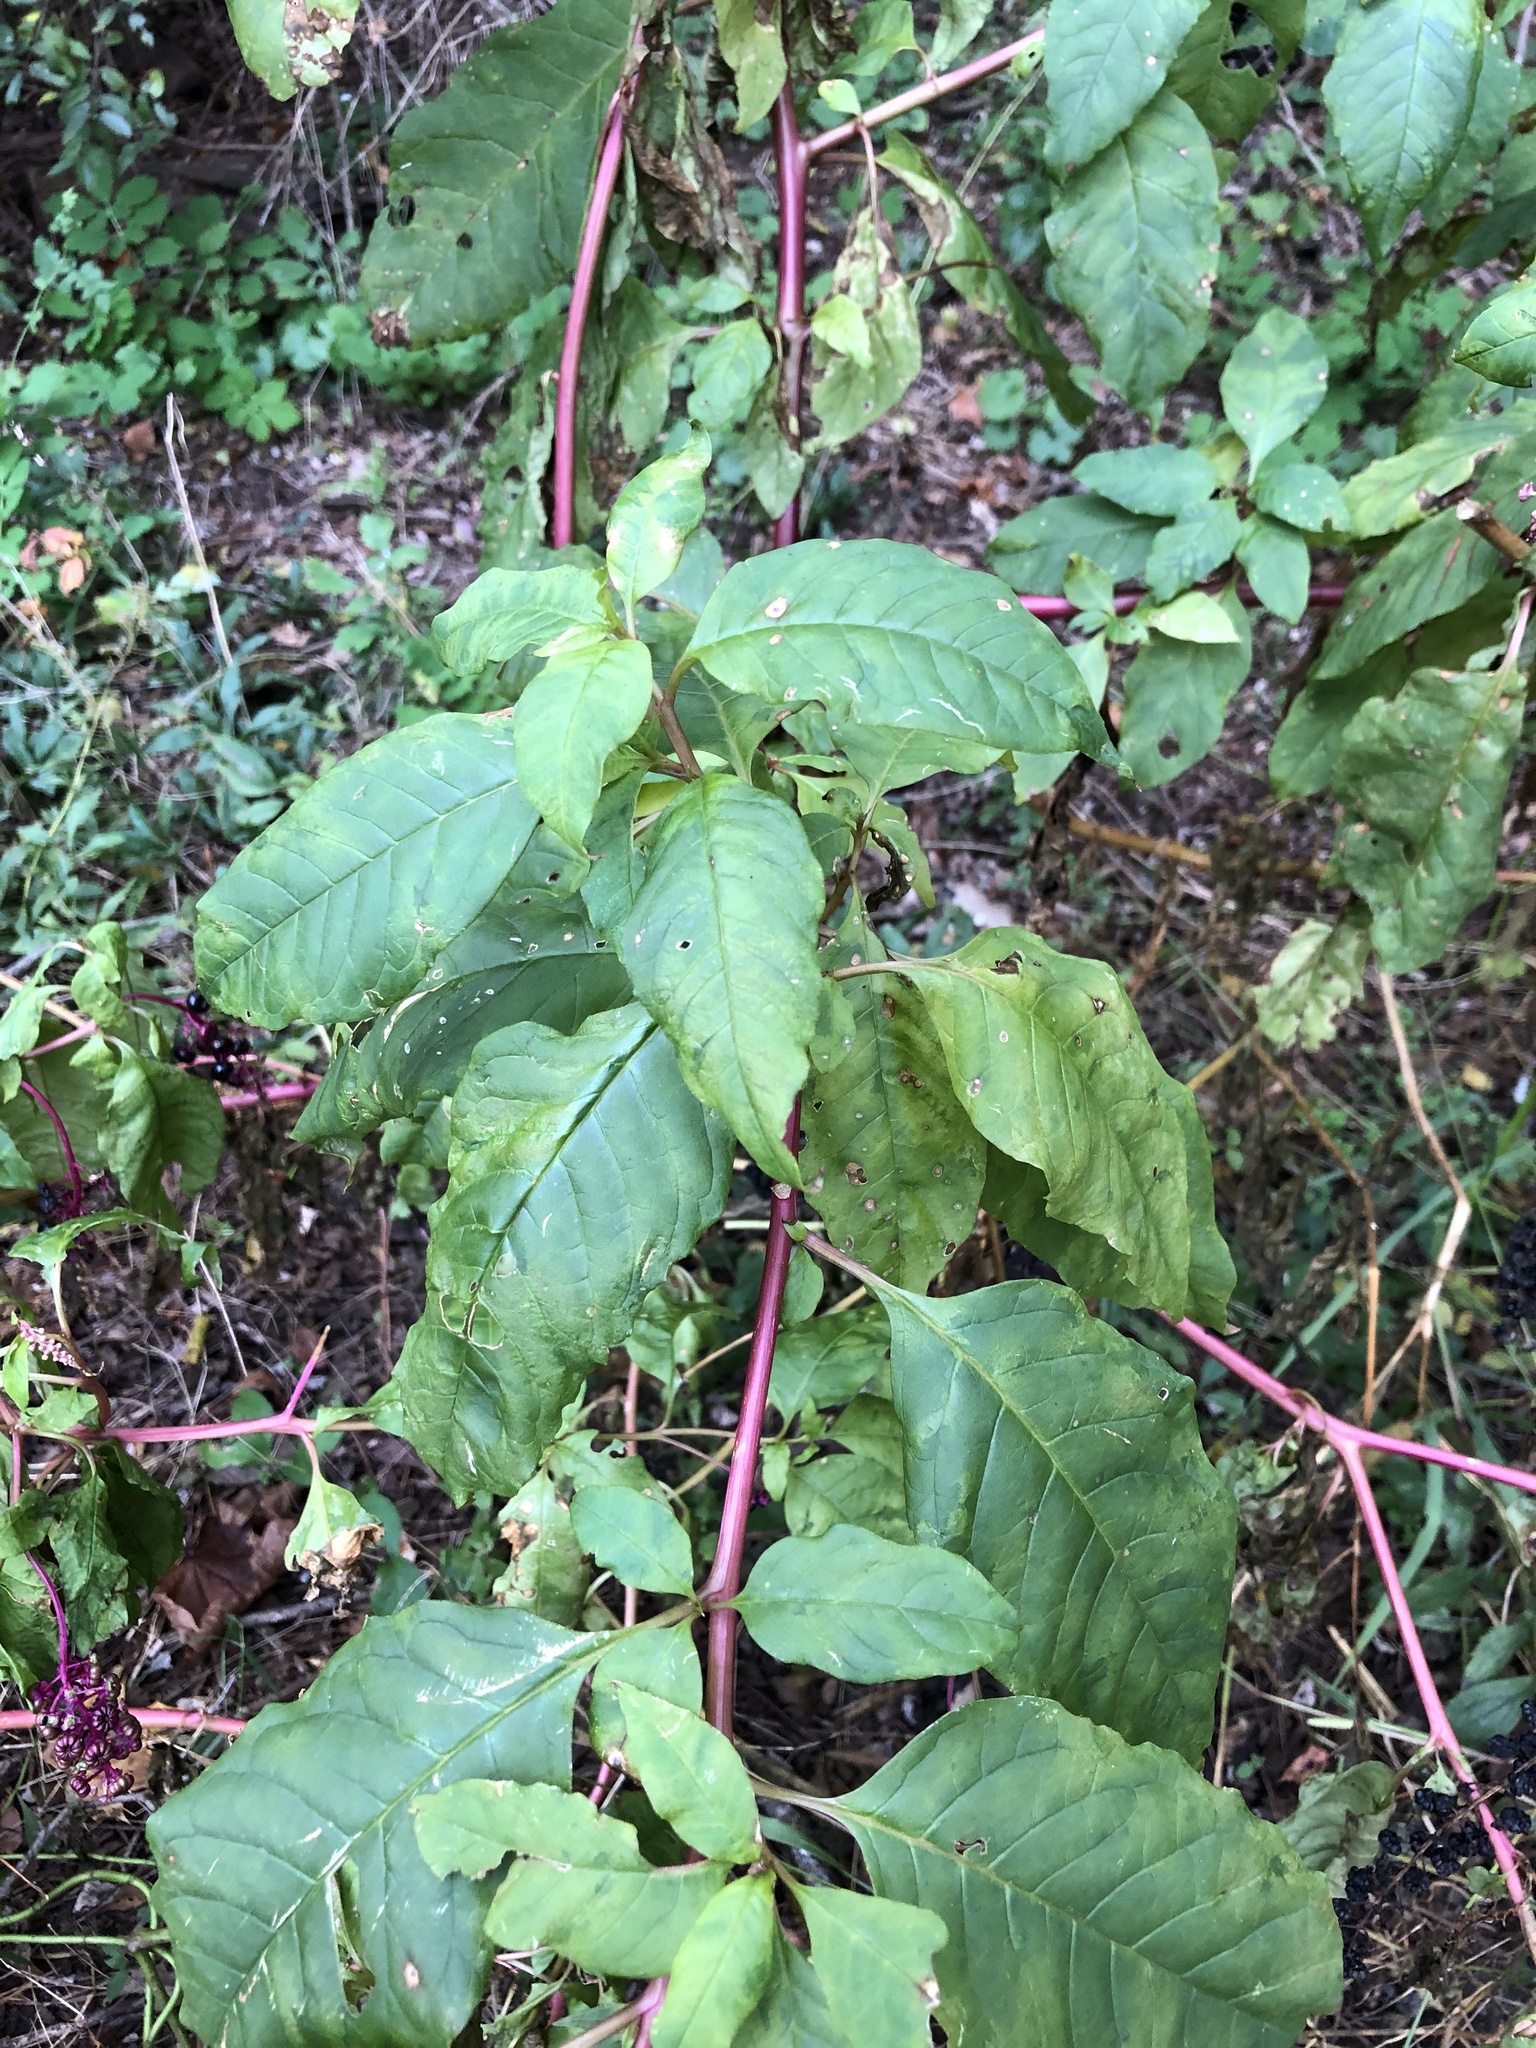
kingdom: Viruses
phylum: Pisuviricota
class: Stelpaviricetes
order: Patatavirales
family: Potyviridae
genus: Potyvirus
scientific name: Potyvirus Pokeweed mosaic virus
